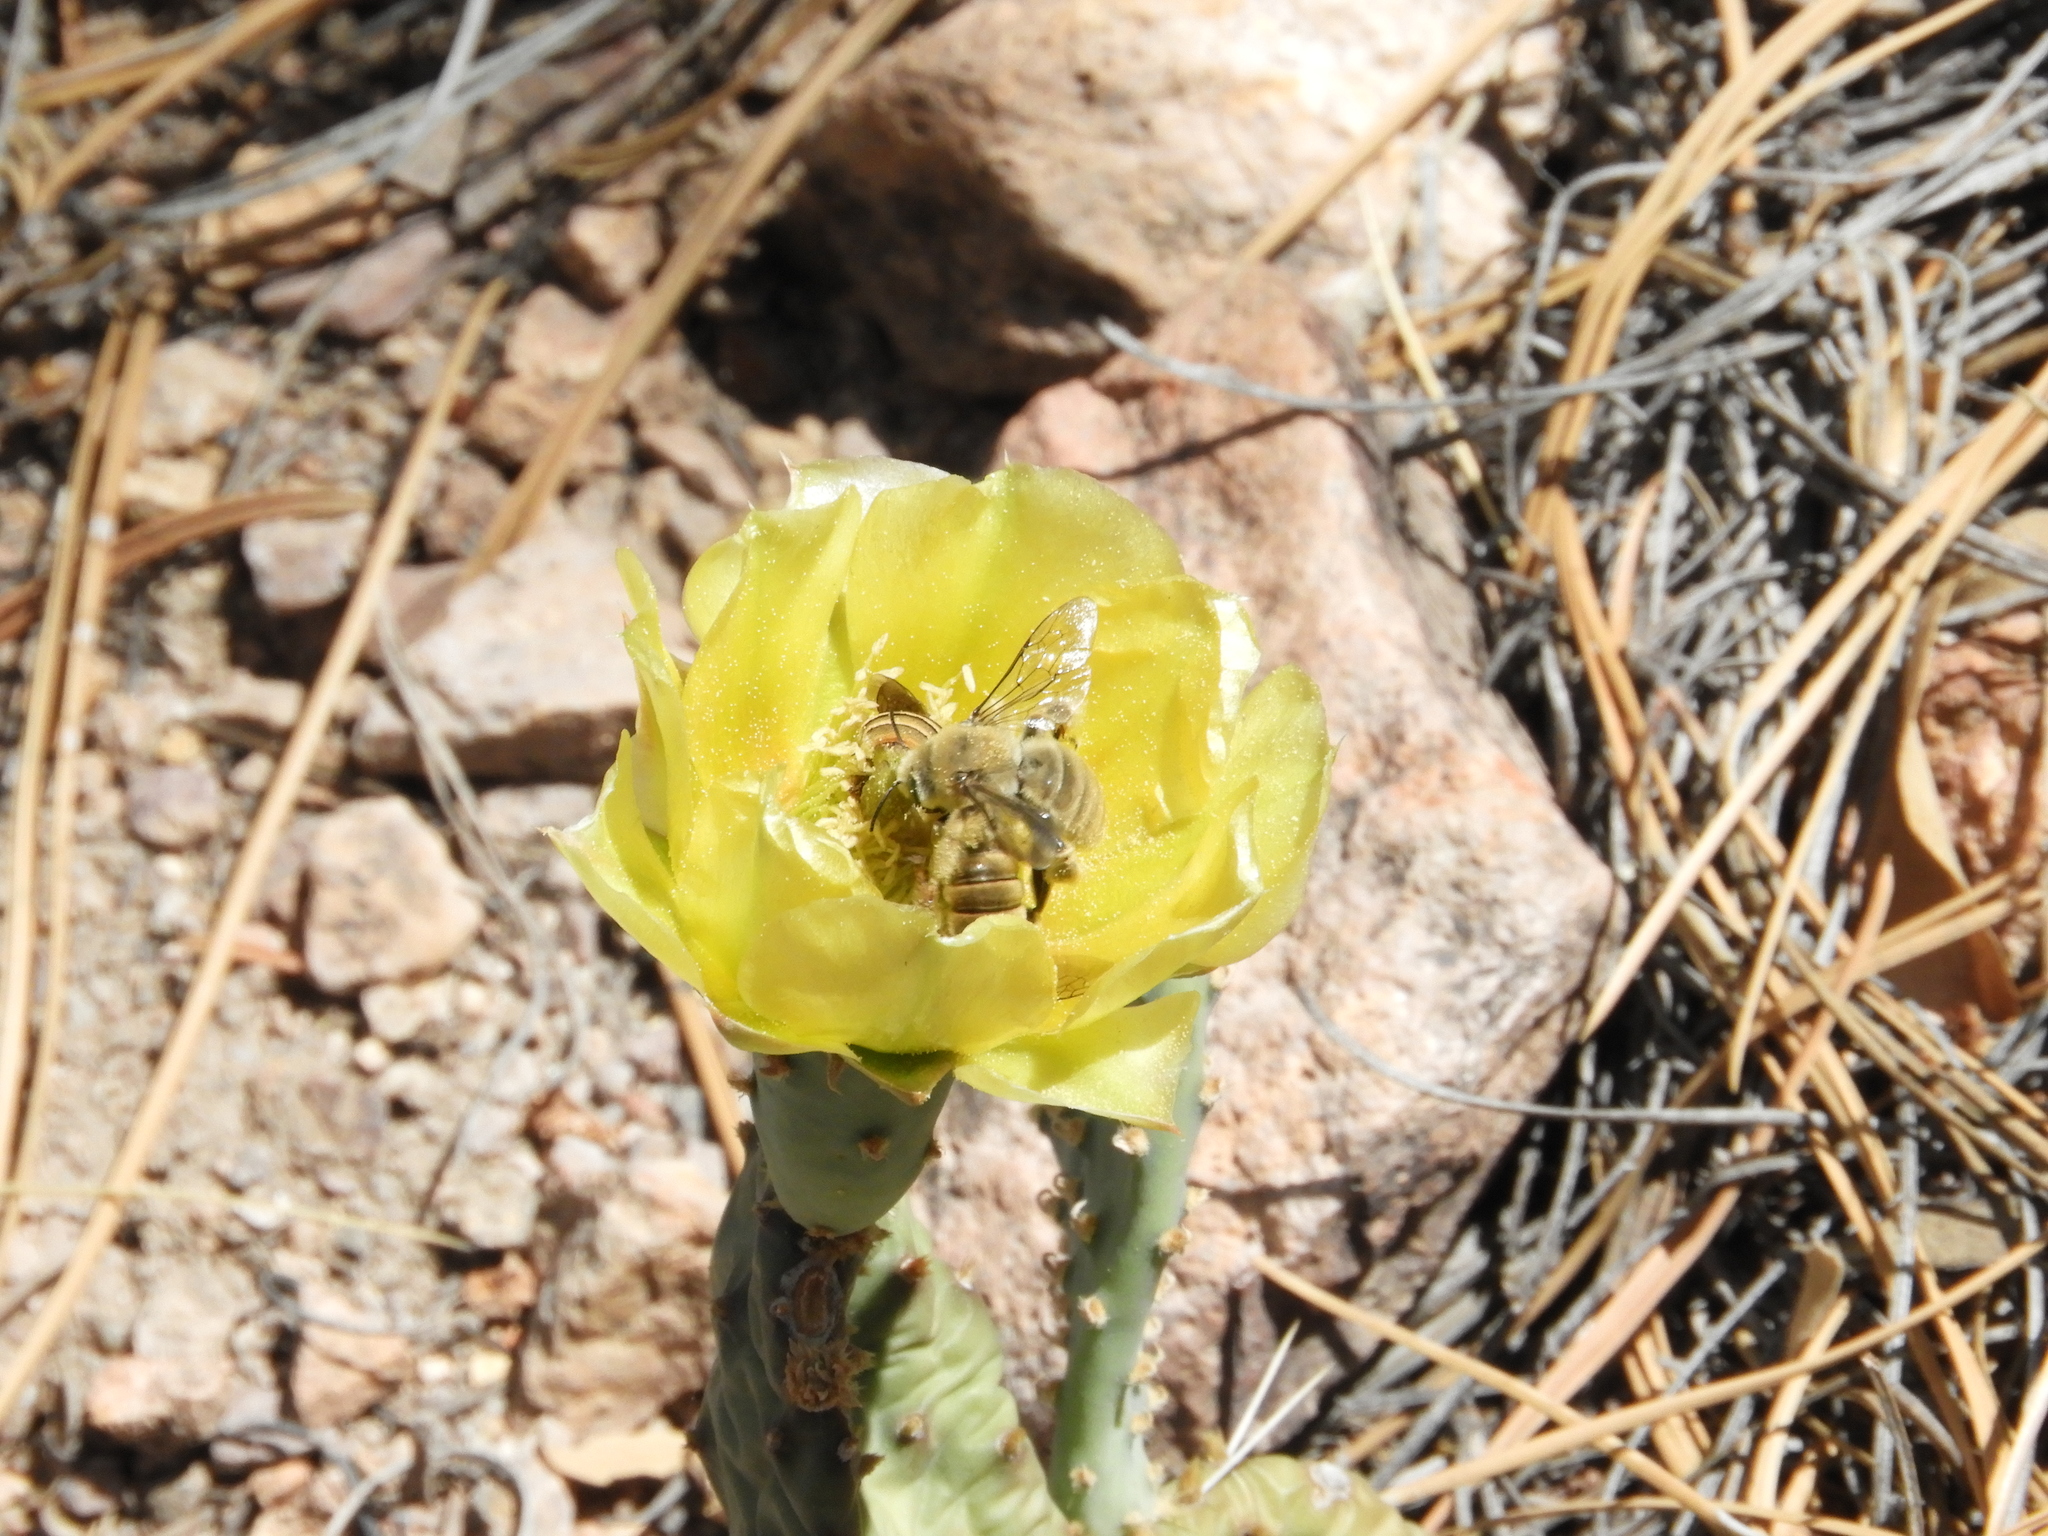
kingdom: Animalia
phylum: Arthropoda
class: Insecta
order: Hymenoptera
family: Apidae
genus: Diadasia
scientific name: Diadasia
